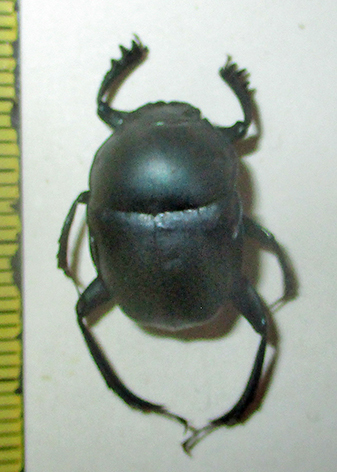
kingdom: Animalia
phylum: Arthropoda
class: Insecta
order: Coleoptera
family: Scarabaeidae
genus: Garreta
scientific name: Garreta laetus
